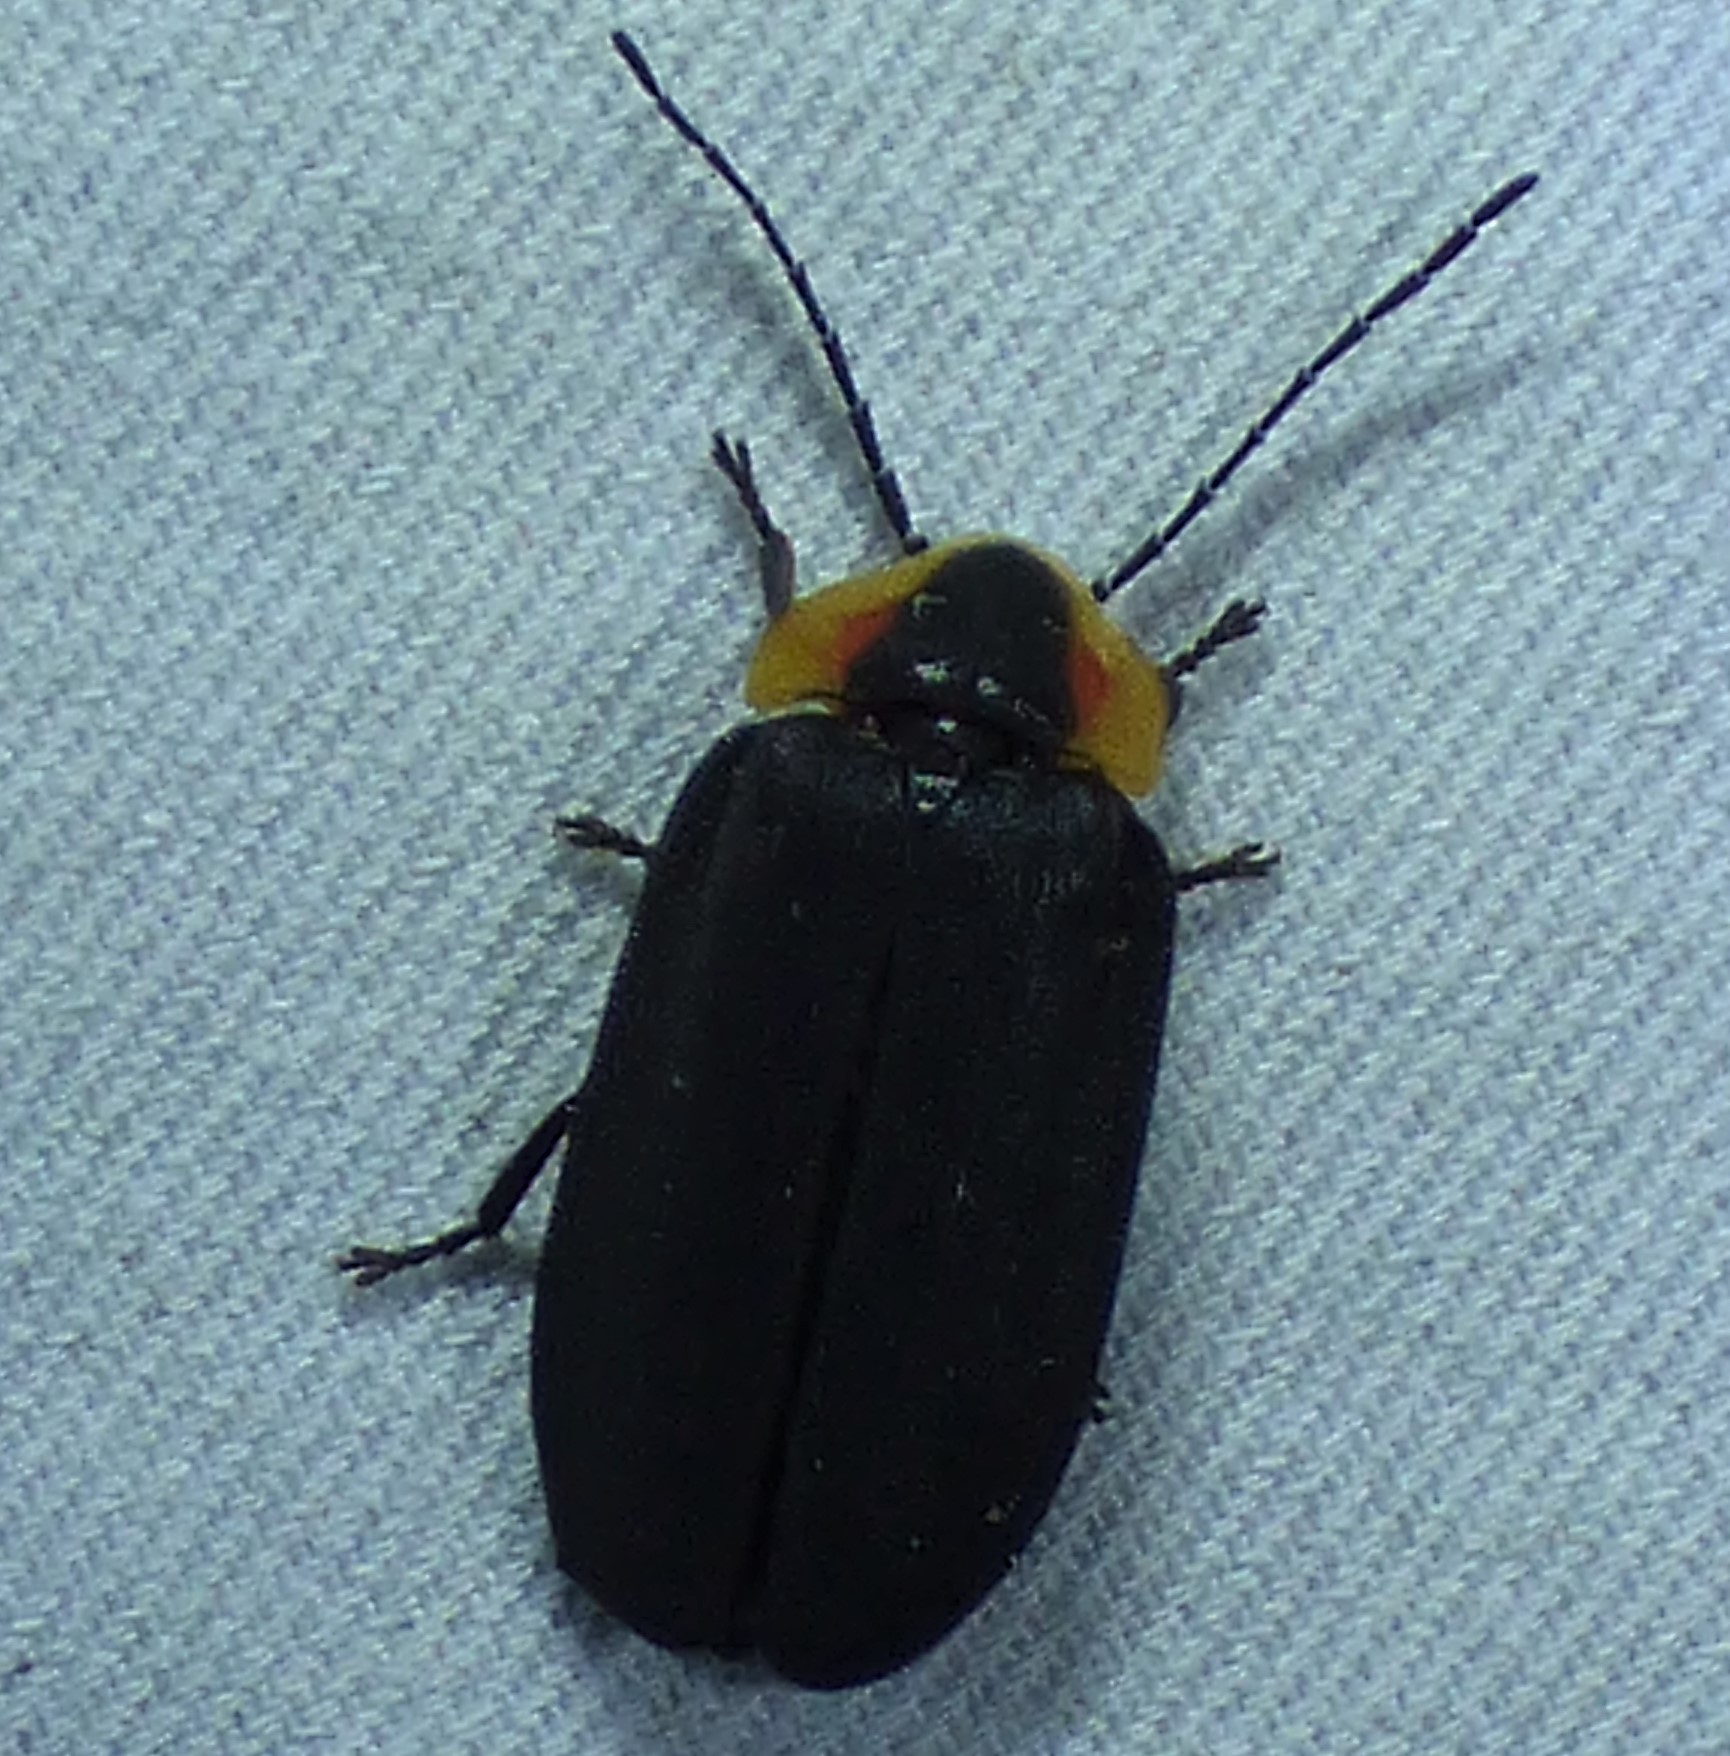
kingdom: Animalia
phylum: Arthropoda
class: Insecta
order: Coleoptera
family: Lampyridae
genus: Lucidota
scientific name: Lucidota atra
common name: Black firefly
